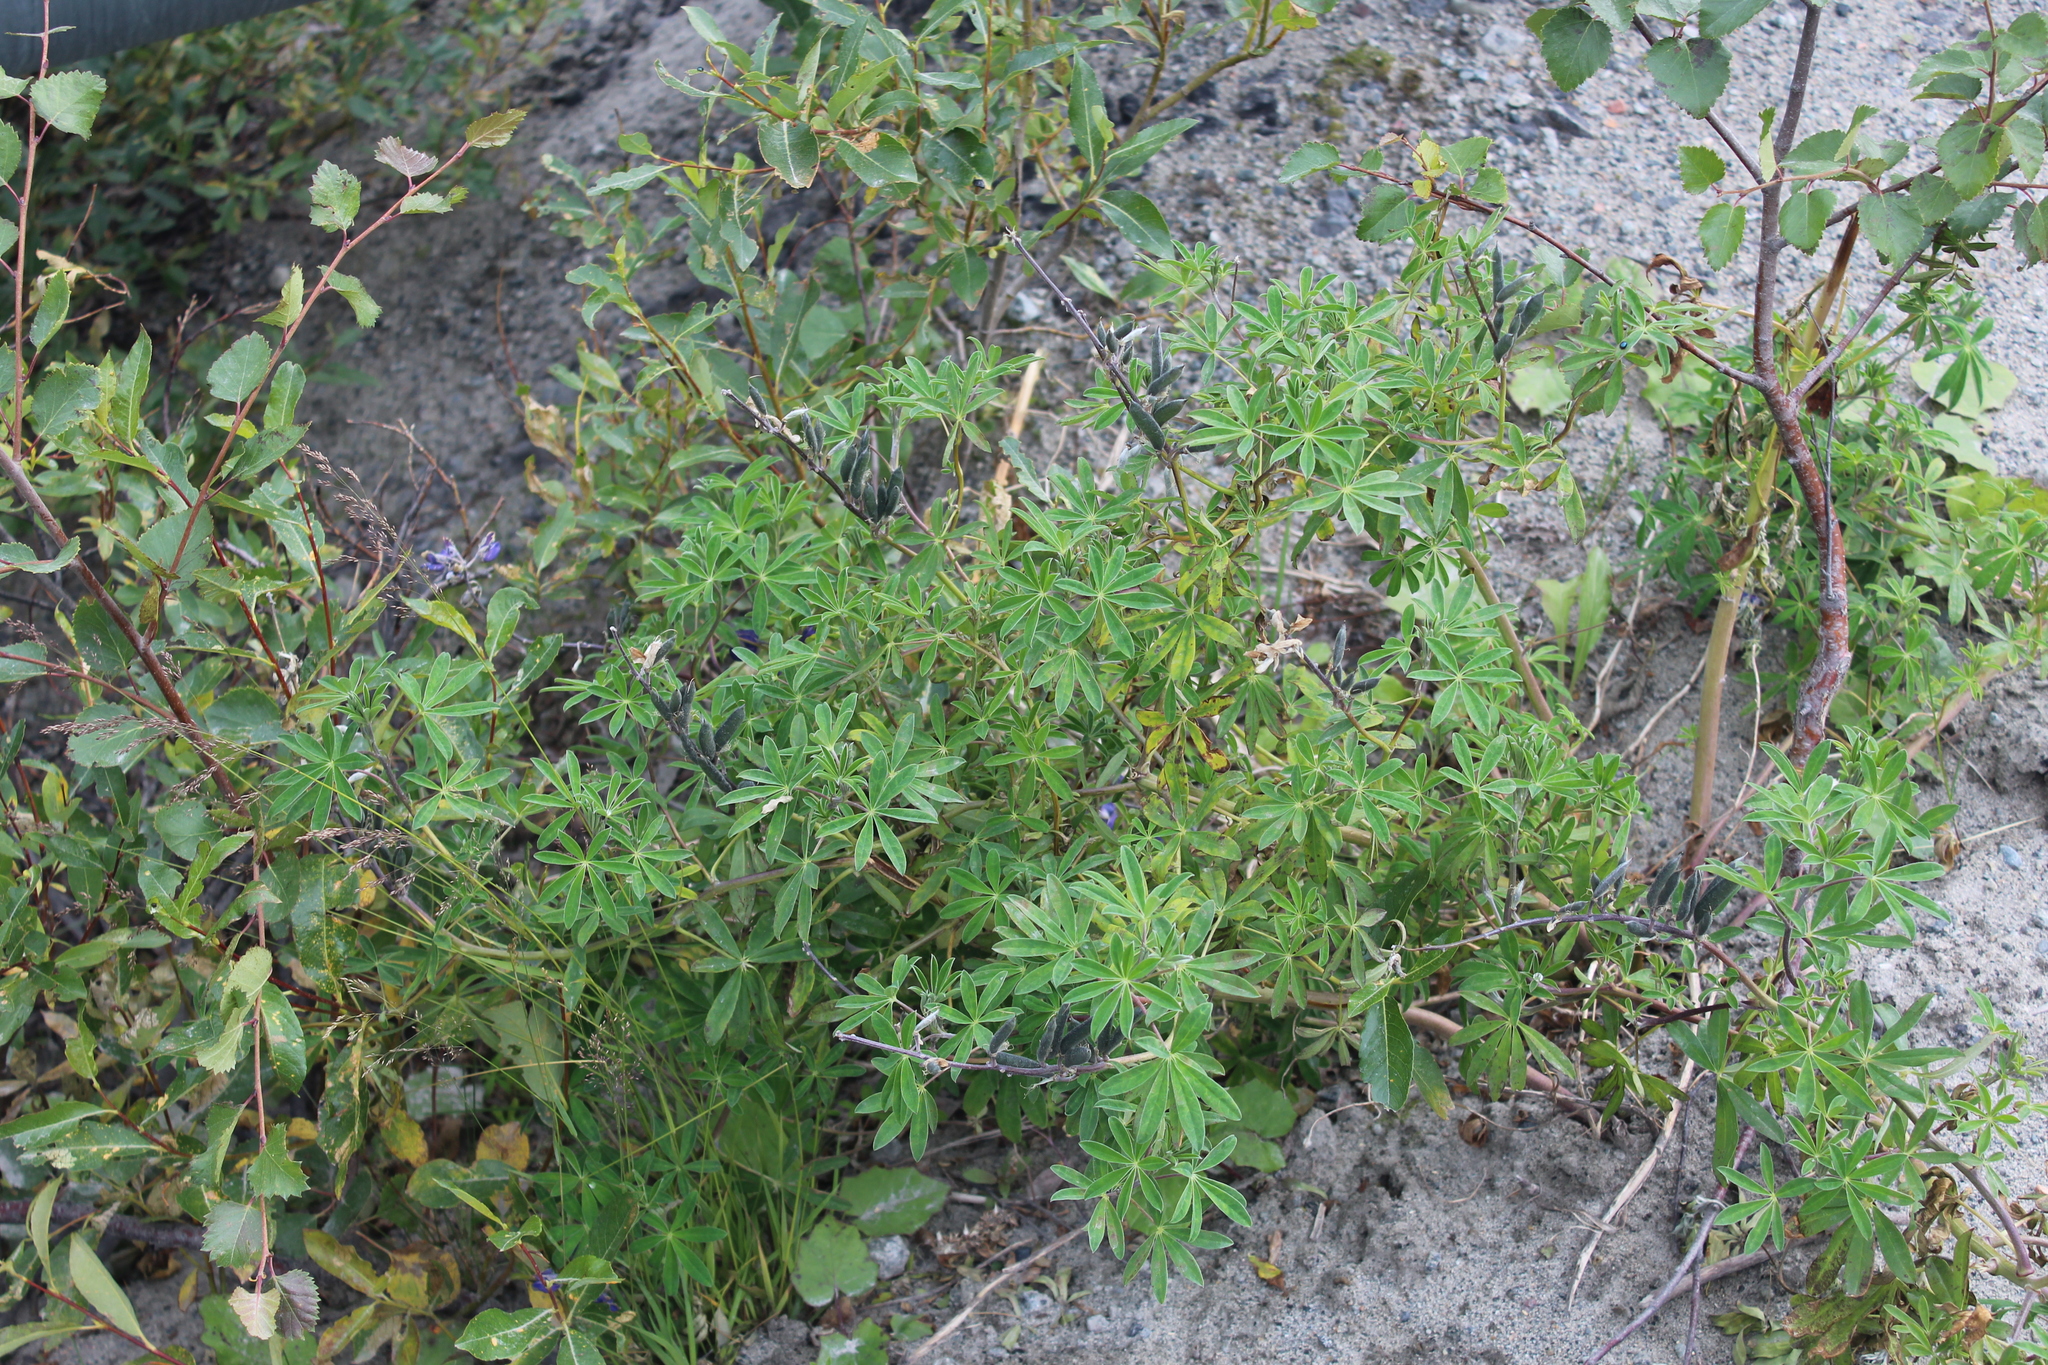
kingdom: Plantae
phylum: Tracheophyta
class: Magnoliopsida
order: Fabales
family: Fabaceae
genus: Lupinus
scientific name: Lupinus nootkatensis
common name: Nootka lupine
